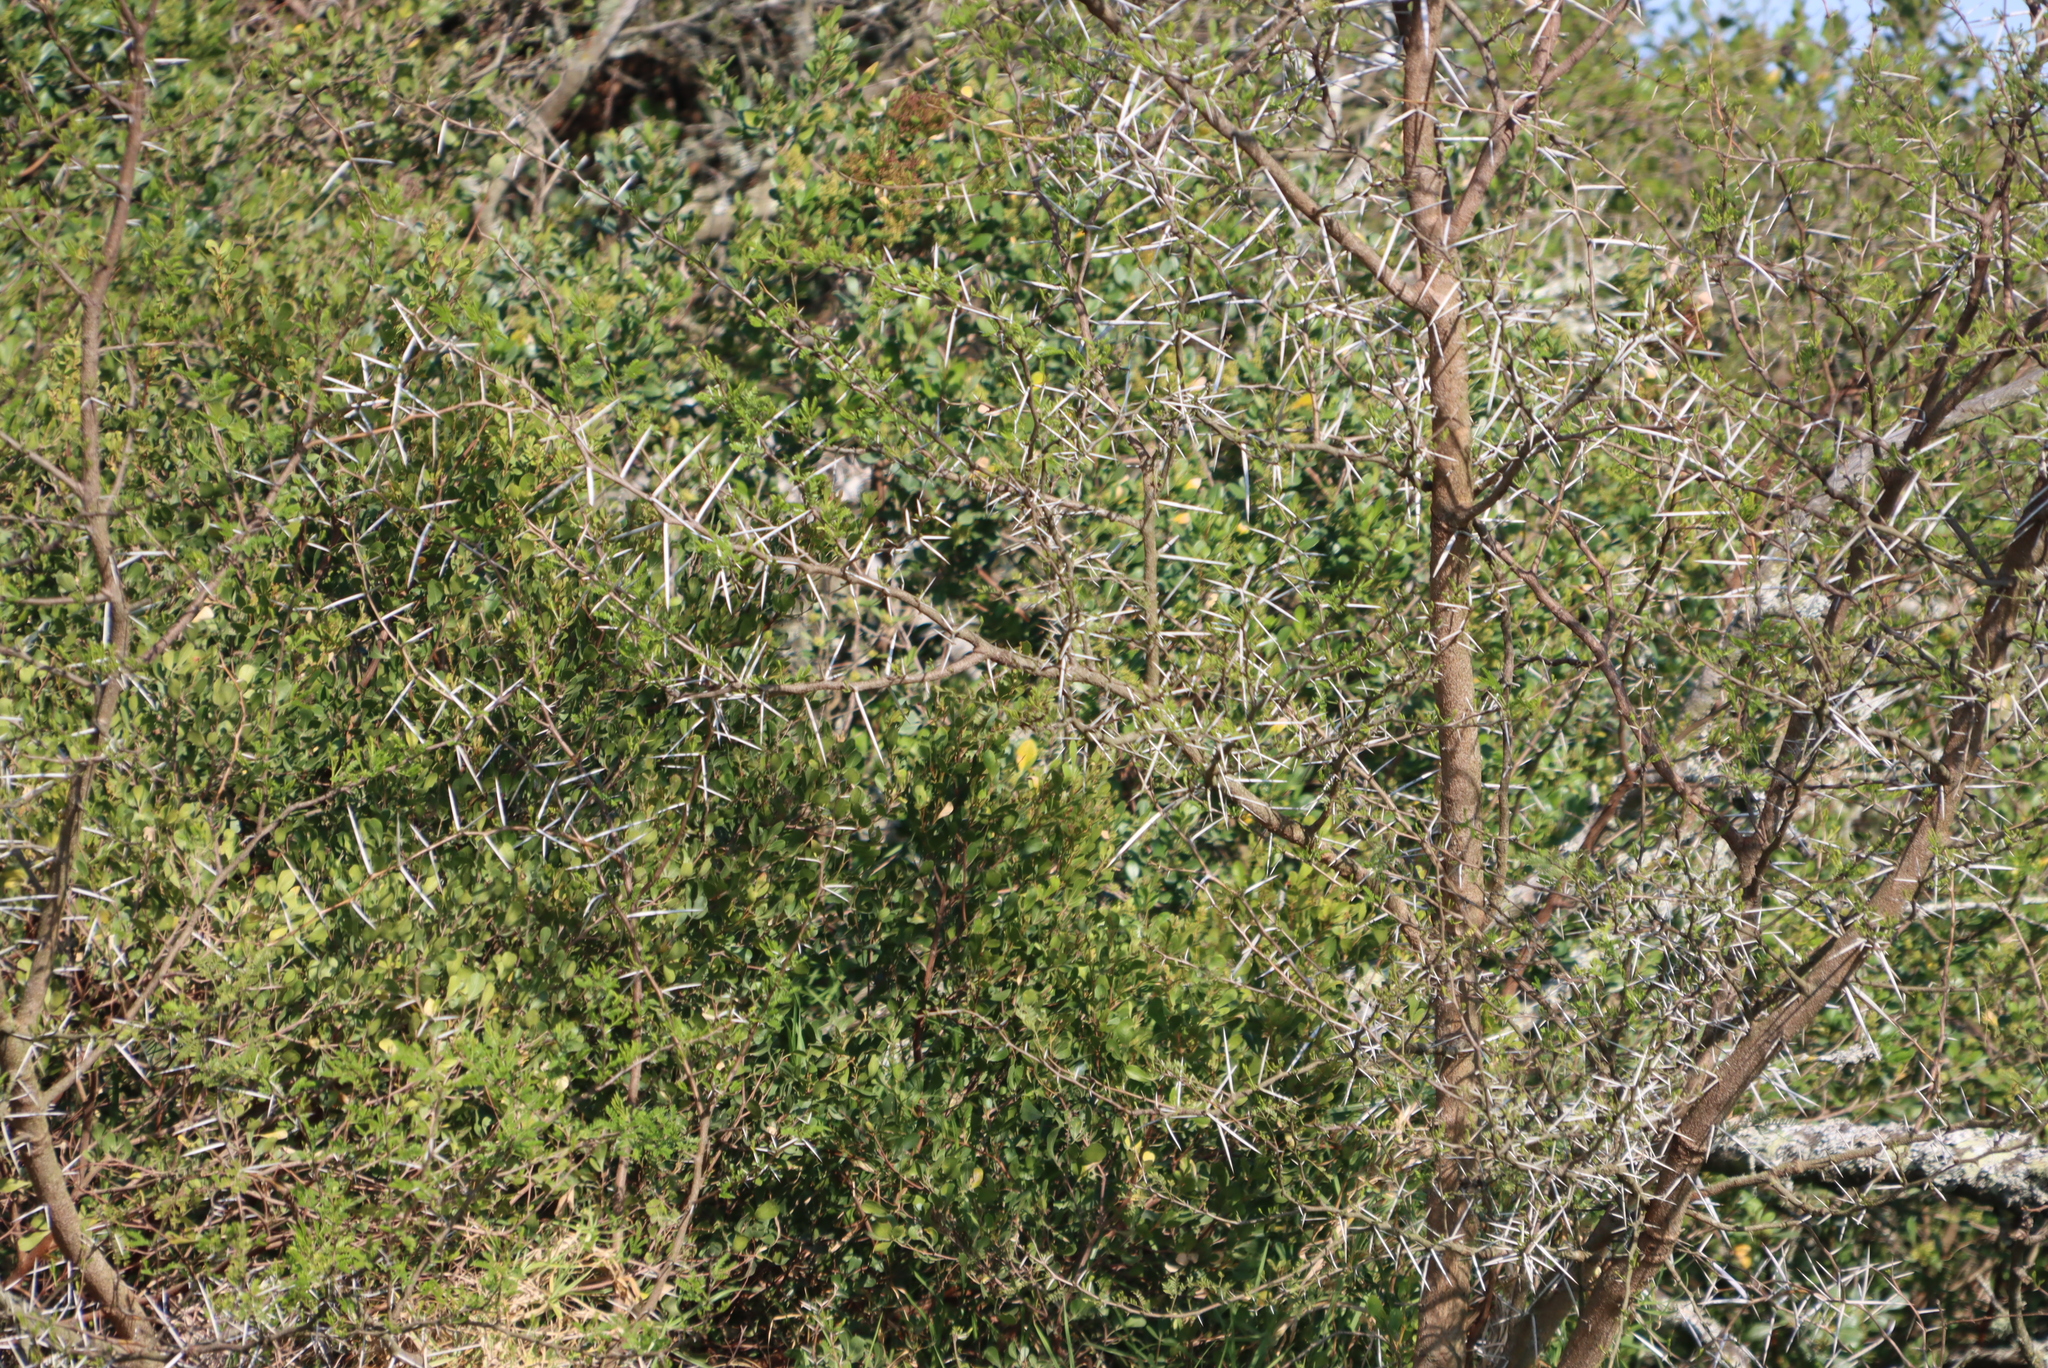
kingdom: Plantae
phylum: Tracheophyta
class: Magnoliopsida
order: Fabales
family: Fabaceae
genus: Vachellia
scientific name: Vachellia karroo
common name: Sweet thorn
